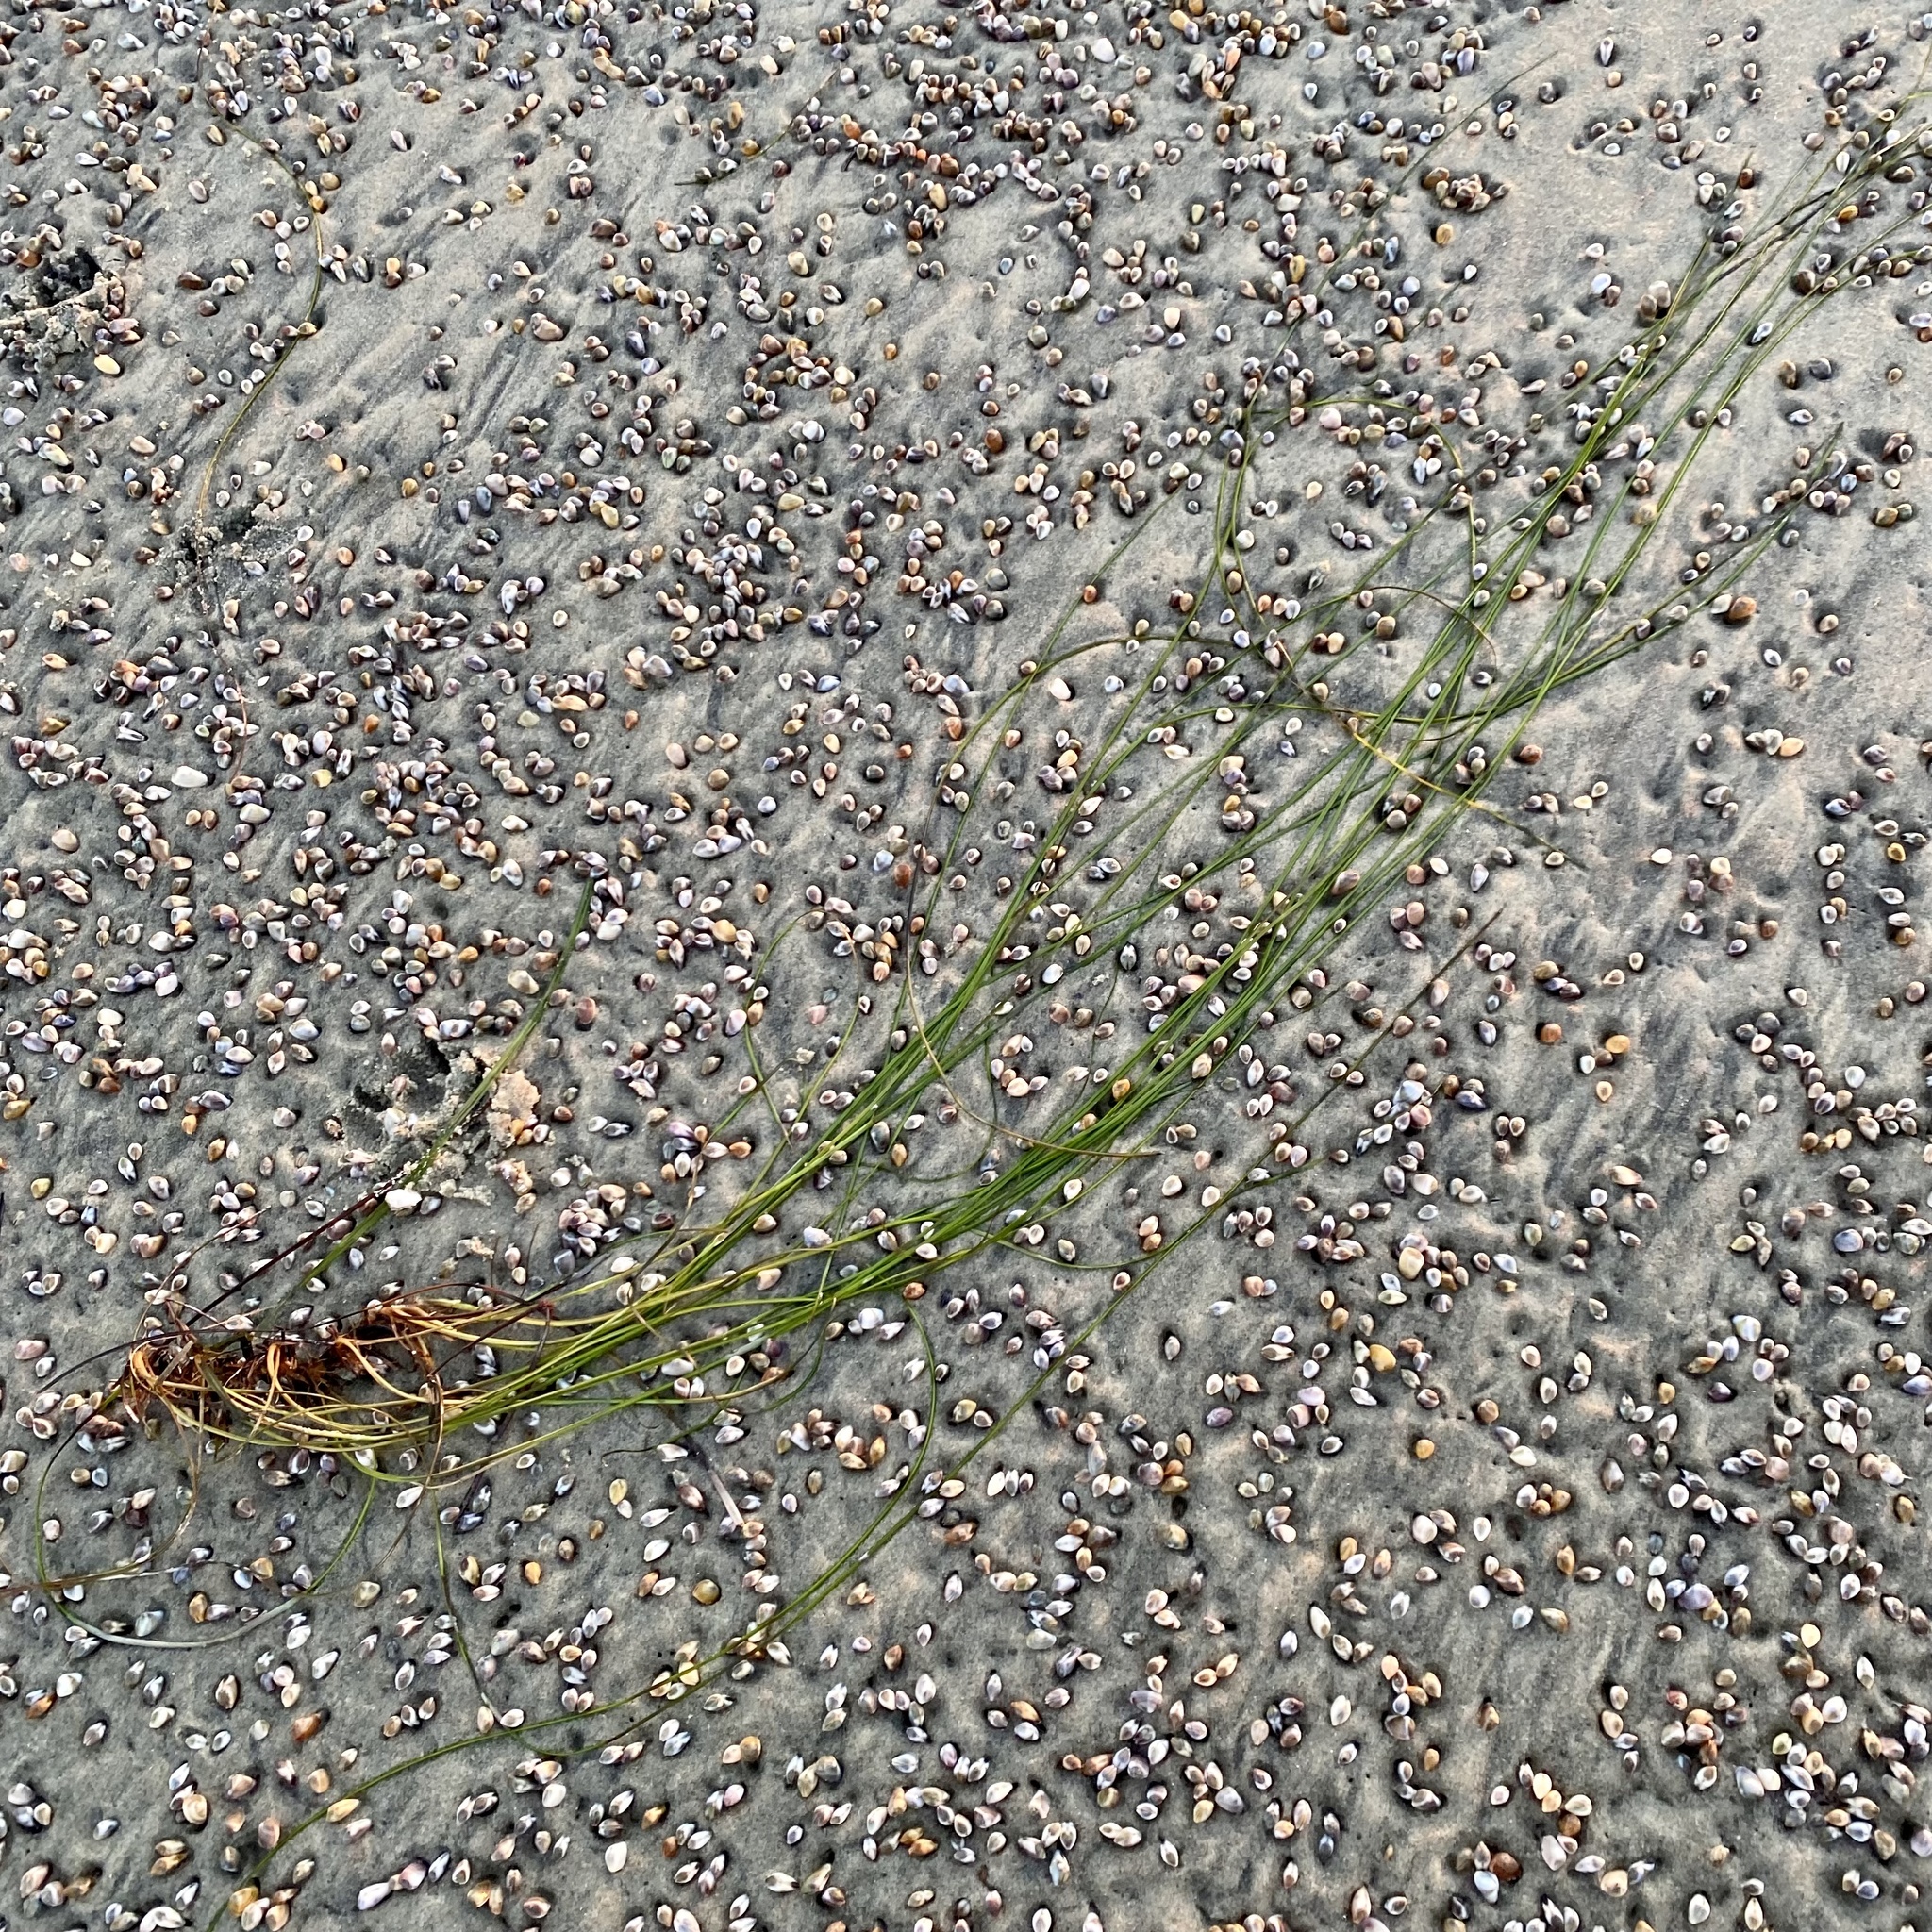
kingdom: Plantae
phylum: Tracheophyta
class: Liliopsida
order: Alismatales
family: Zosteraceae
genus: Phyllospadix
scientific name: Phyllospadix torreyi
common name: Surfgrass
